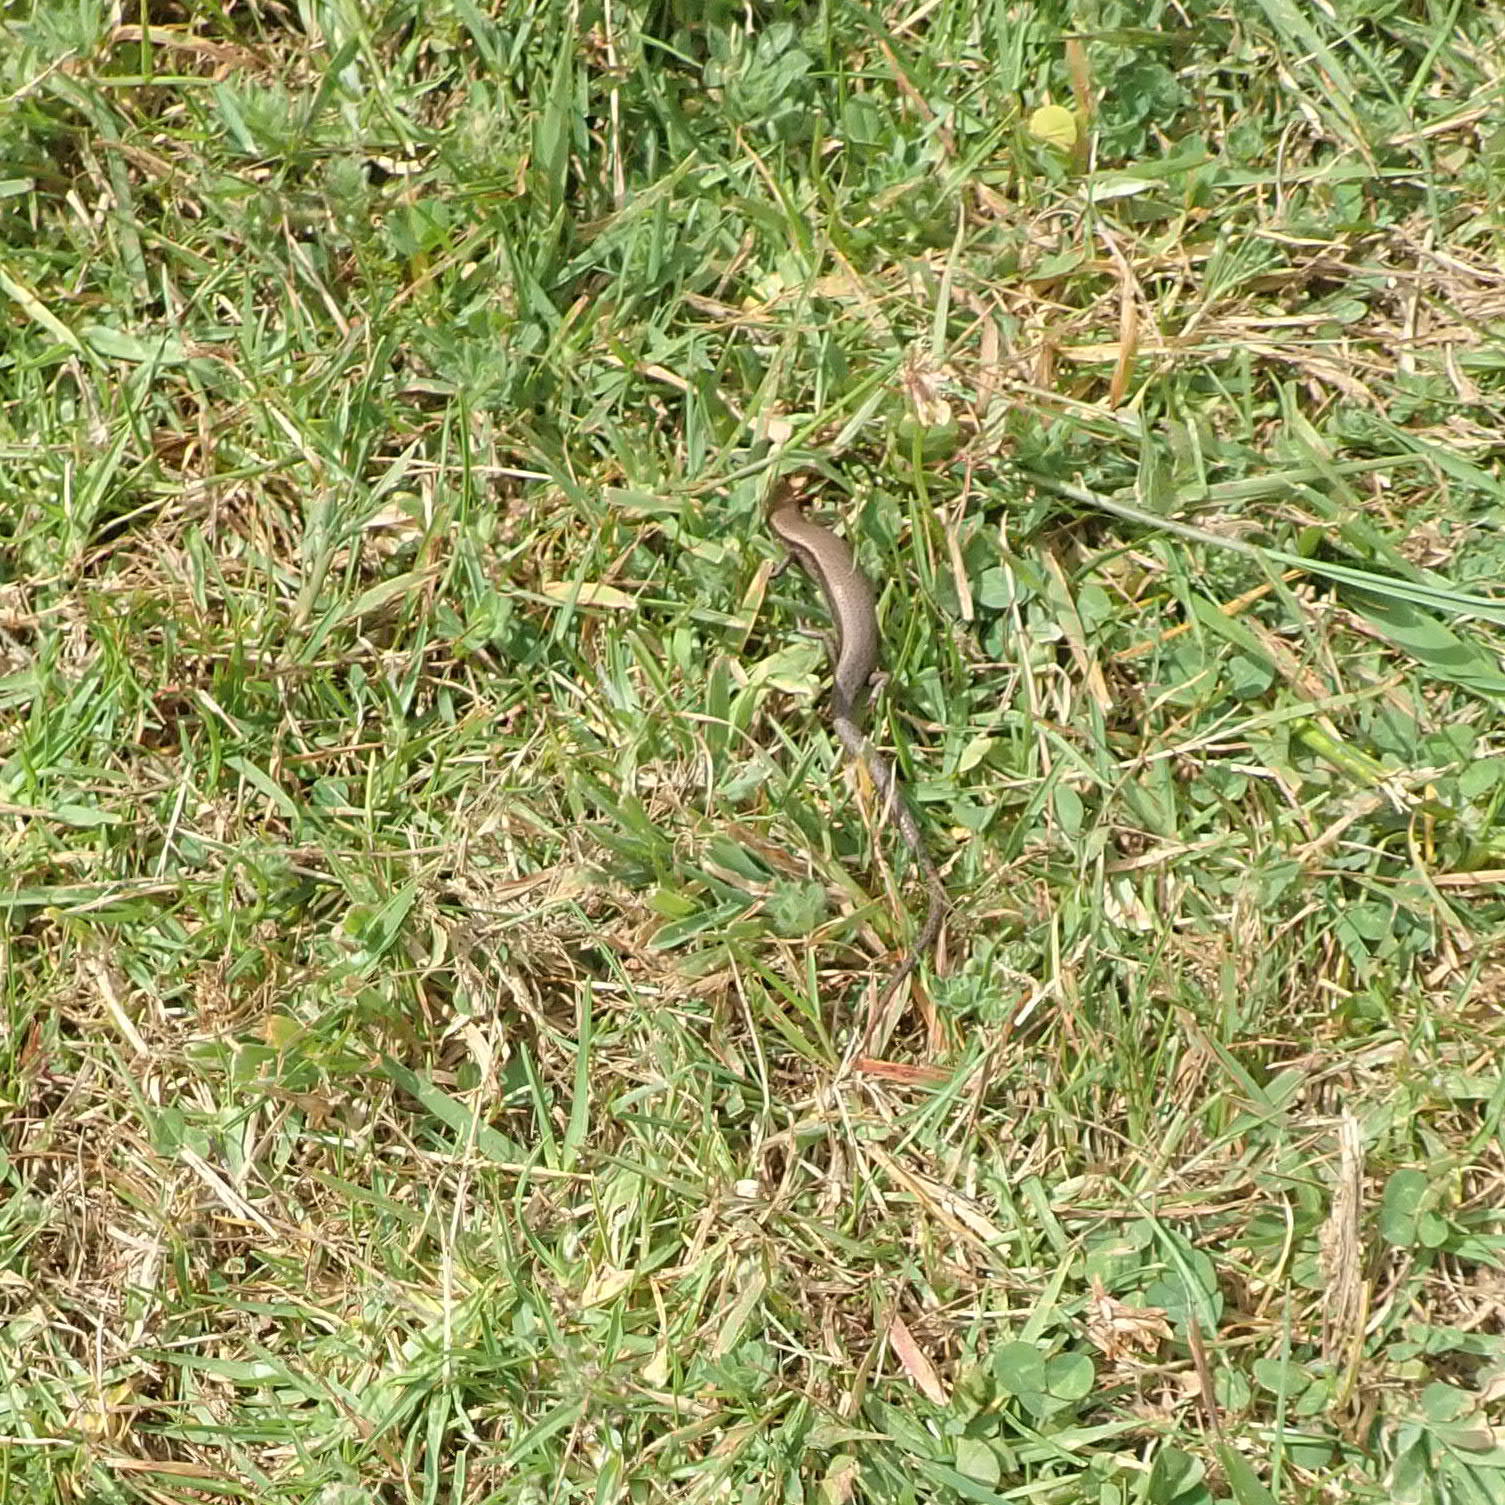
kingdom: Animalia
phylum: Chordata
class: Squamata
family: Scincidae
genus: Lampropholis
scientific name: Lampropholis delicata
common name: Plague skink
